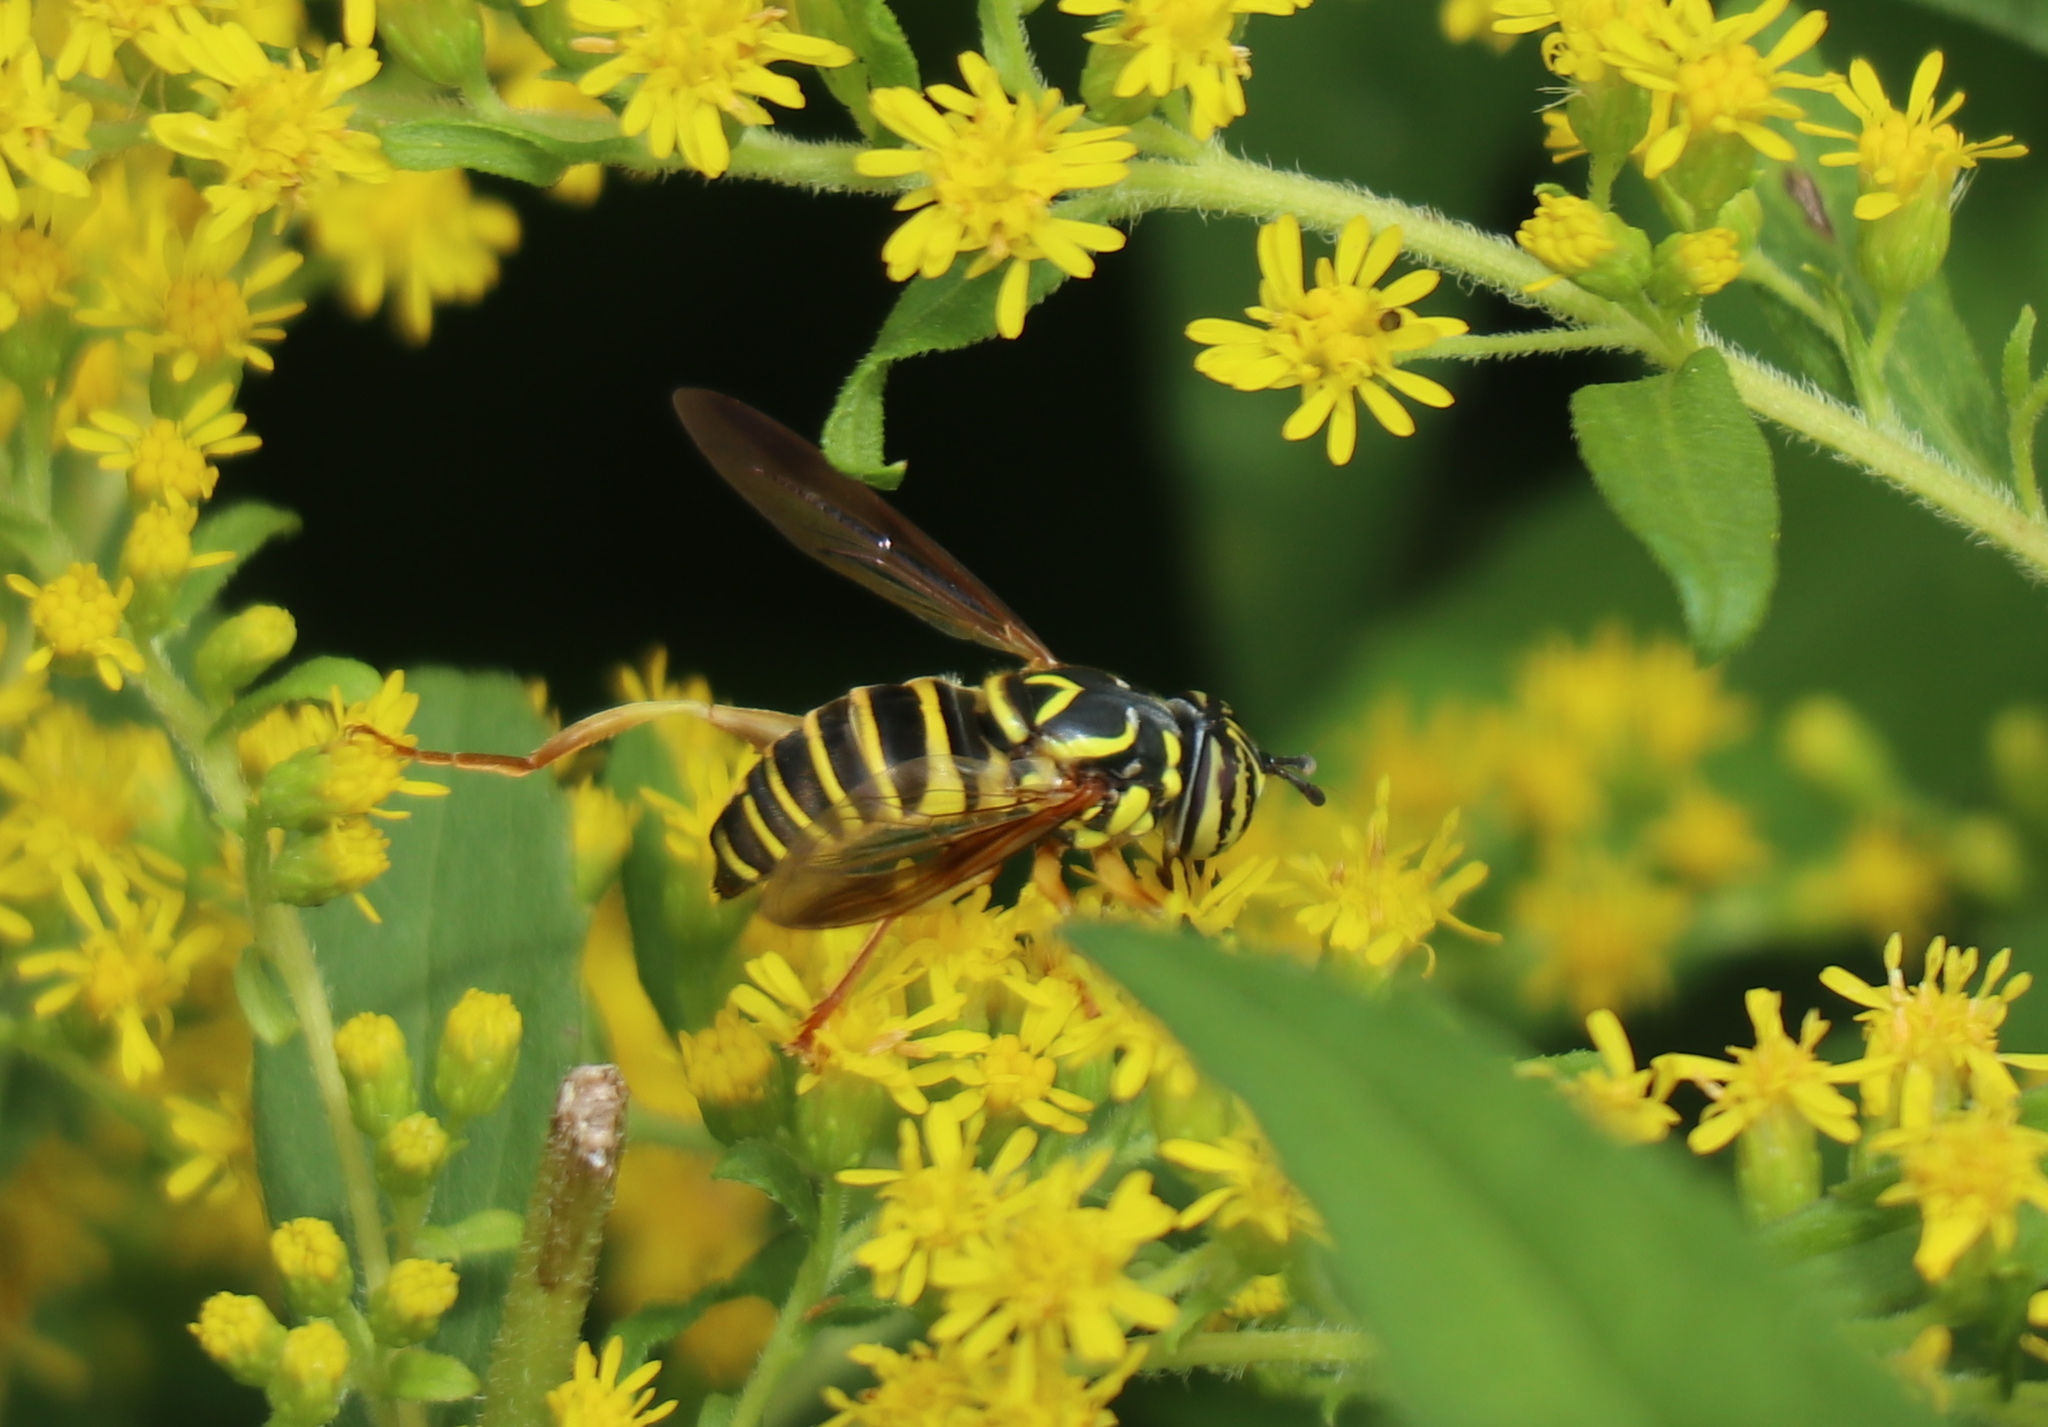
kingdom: Animalia
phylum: Arthropoda
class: Insecta
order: Diptera
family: Syrphidae
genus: Spilomyia
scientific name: Spilomyia longicornis
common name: Eastern hornet fly
